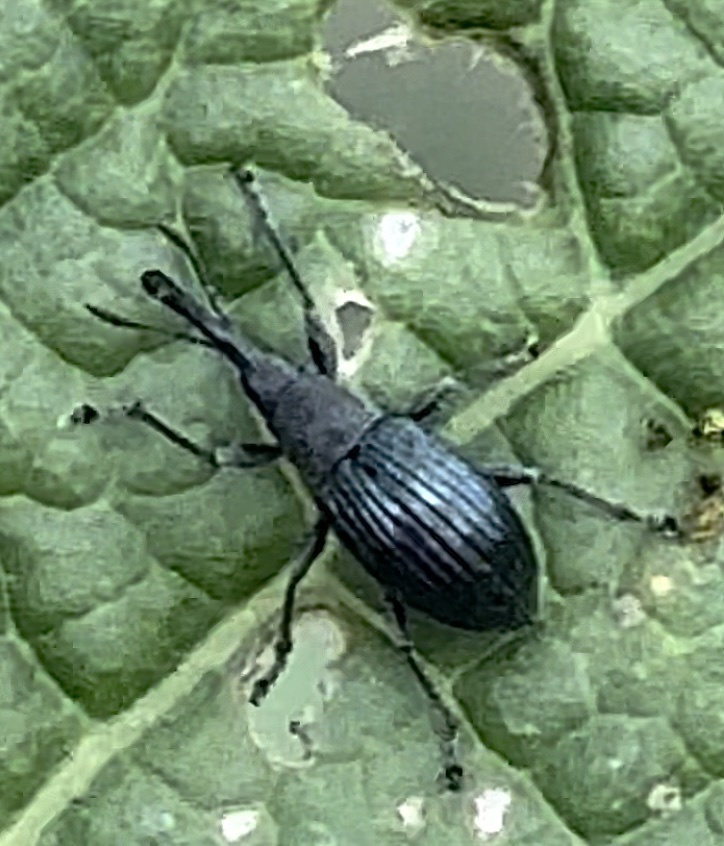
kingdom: Animalia
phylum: Arthropoda
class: Insecta
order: Coleoptera
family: Apionidae
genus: Aspidapion
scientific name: Aspidapion validum
